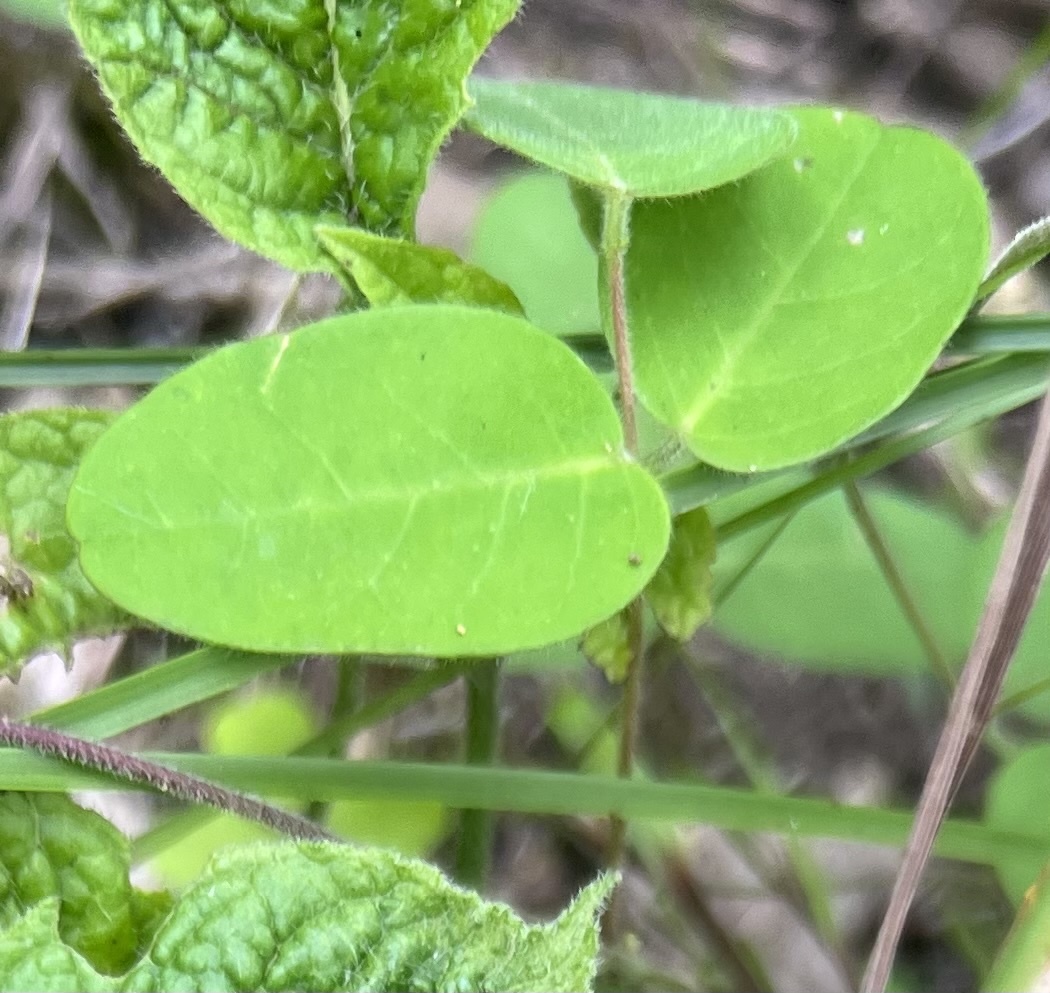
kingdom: Plantae
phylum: Tracheophyta
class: Magnoliopsida
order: Fabales
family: Fabaceae
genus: Galactia
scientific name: Galactia regularis
